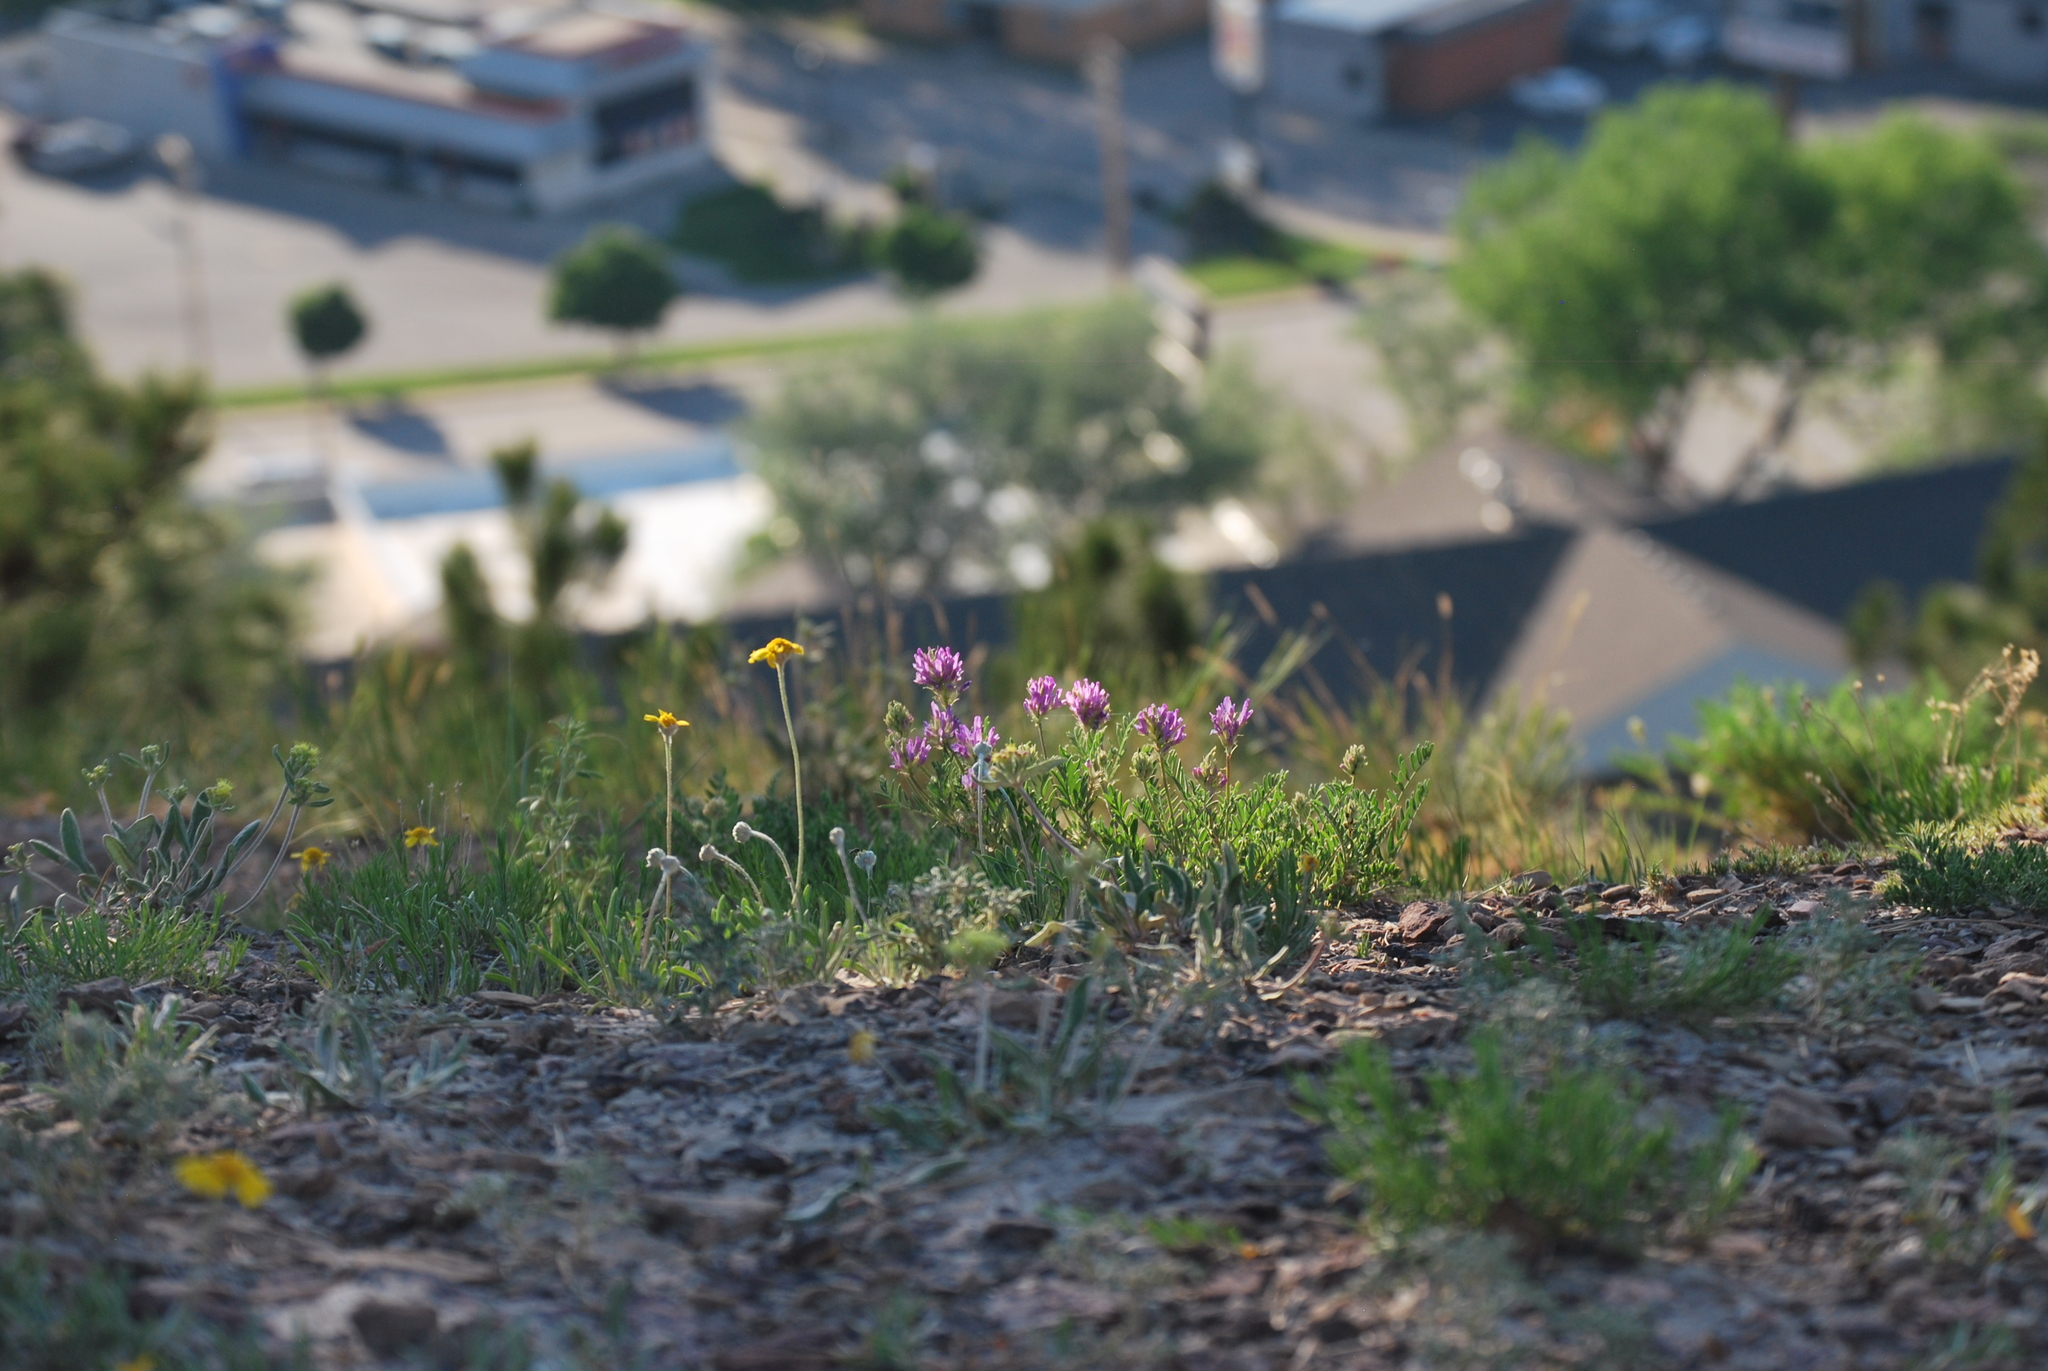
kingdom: Plantae
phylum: Tracheophyta
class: Magnoliopsida
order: Fabales
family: Fabaceae
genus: Astragalus
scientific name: Astragalus laxmannii
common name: Laxmann's milk-vetch
